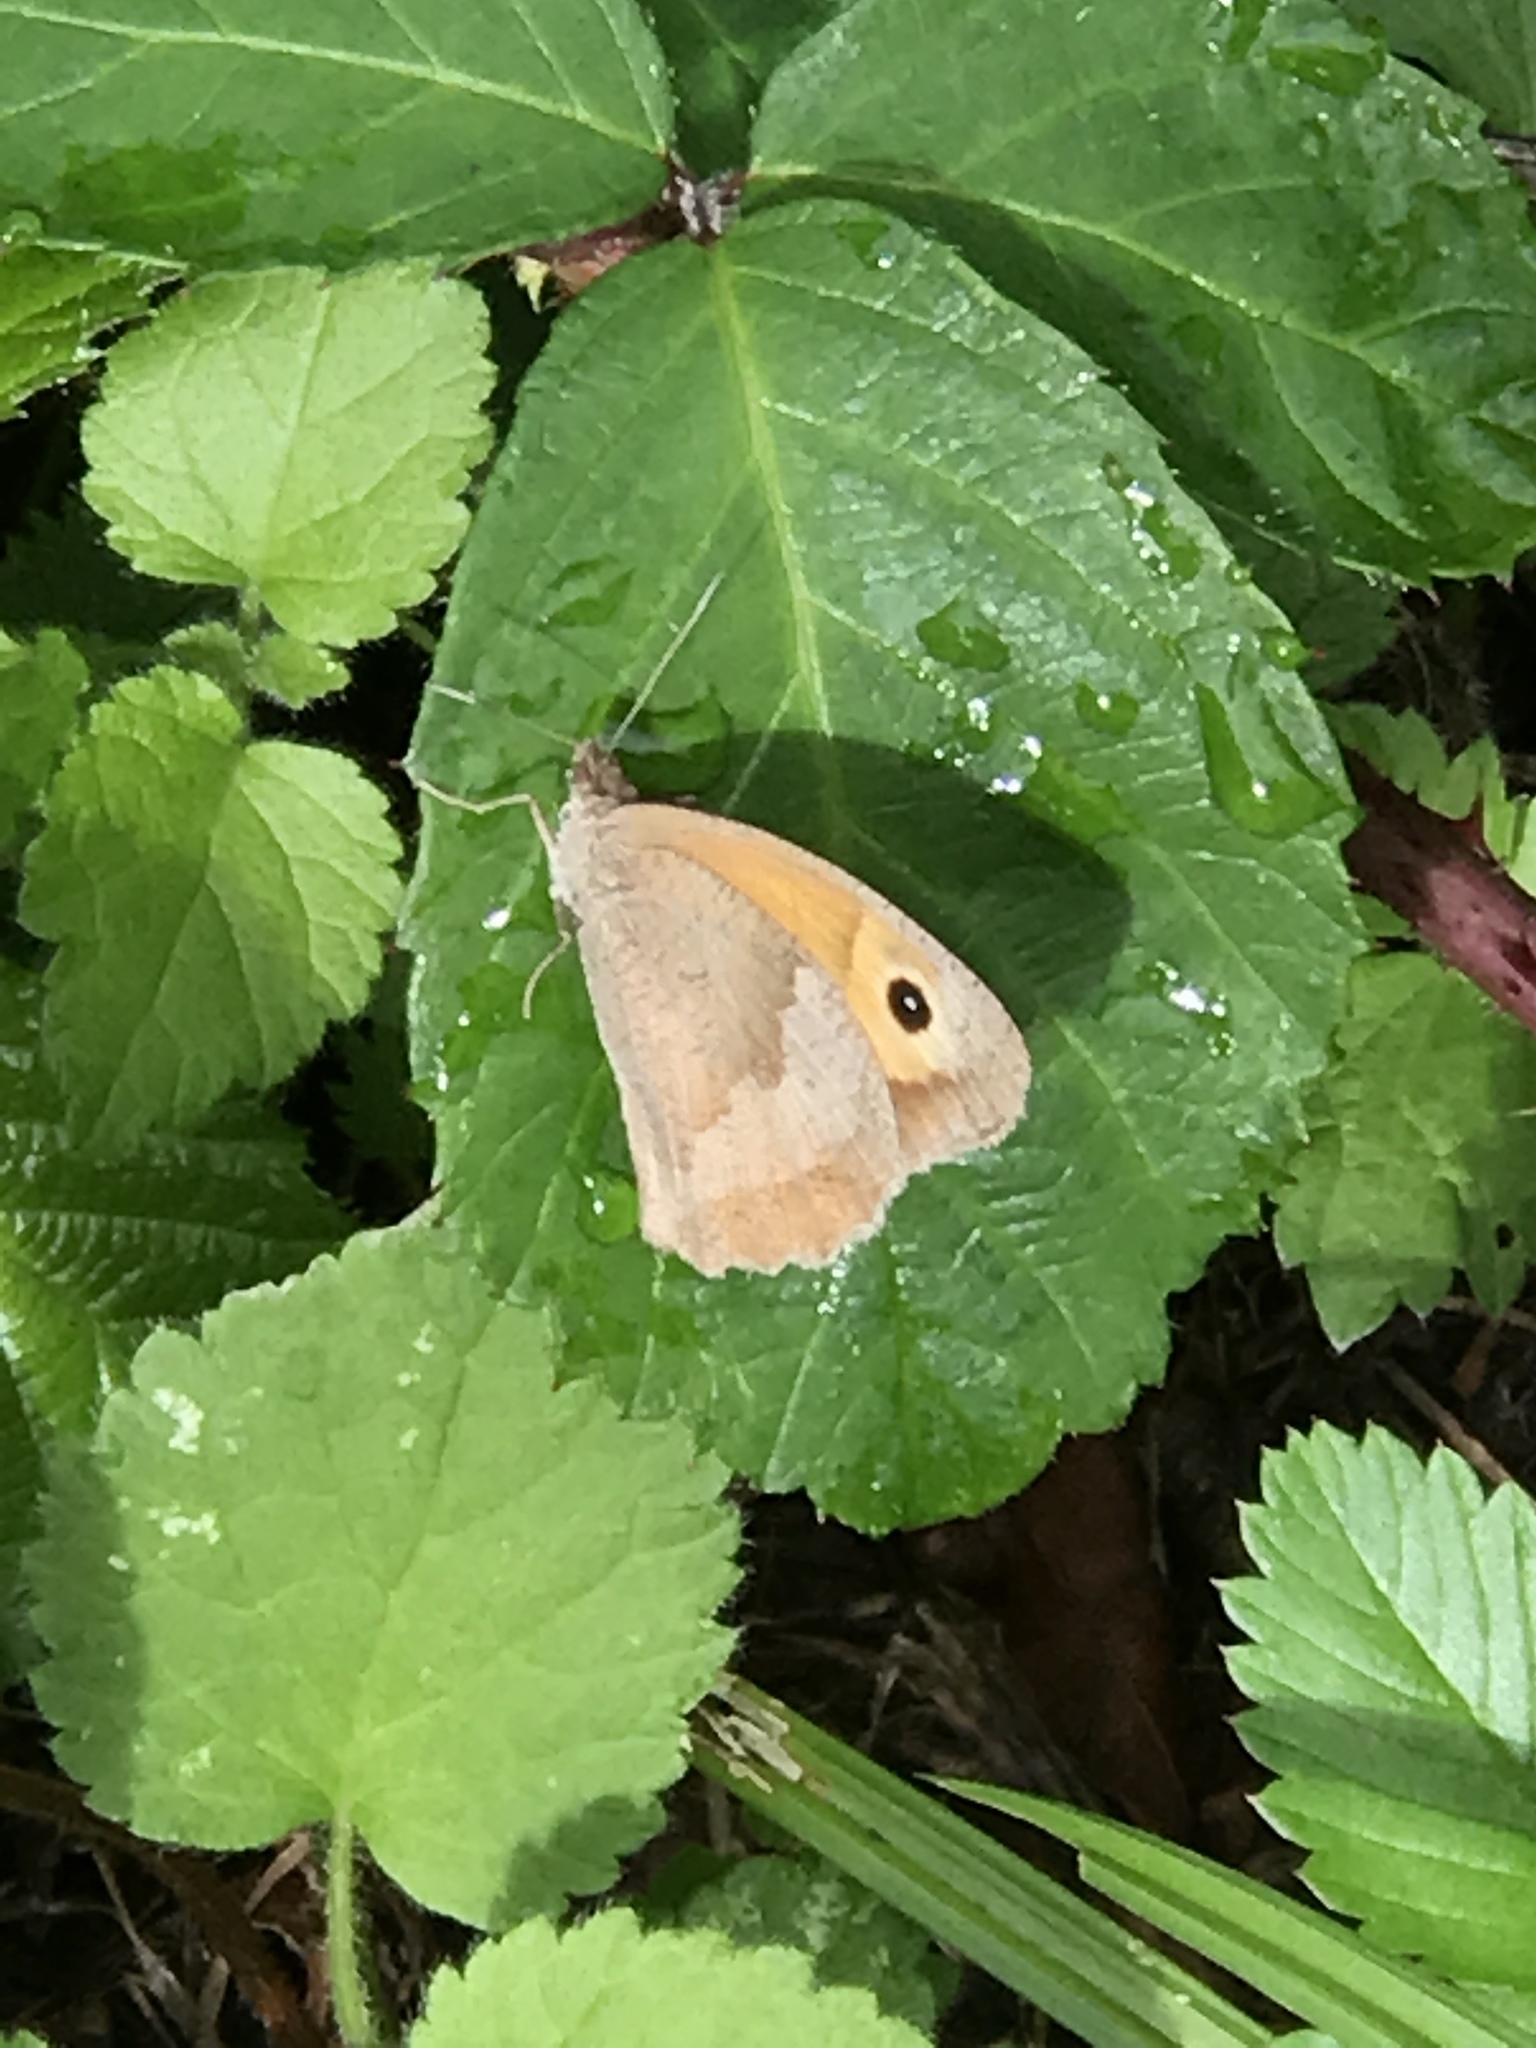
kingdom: Animalia
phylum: Arthropoda
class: Insecta
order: Lepidoptera
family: Nymphalidae
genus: Maniola
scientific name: Maniola jurtina
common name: Meadow brown
